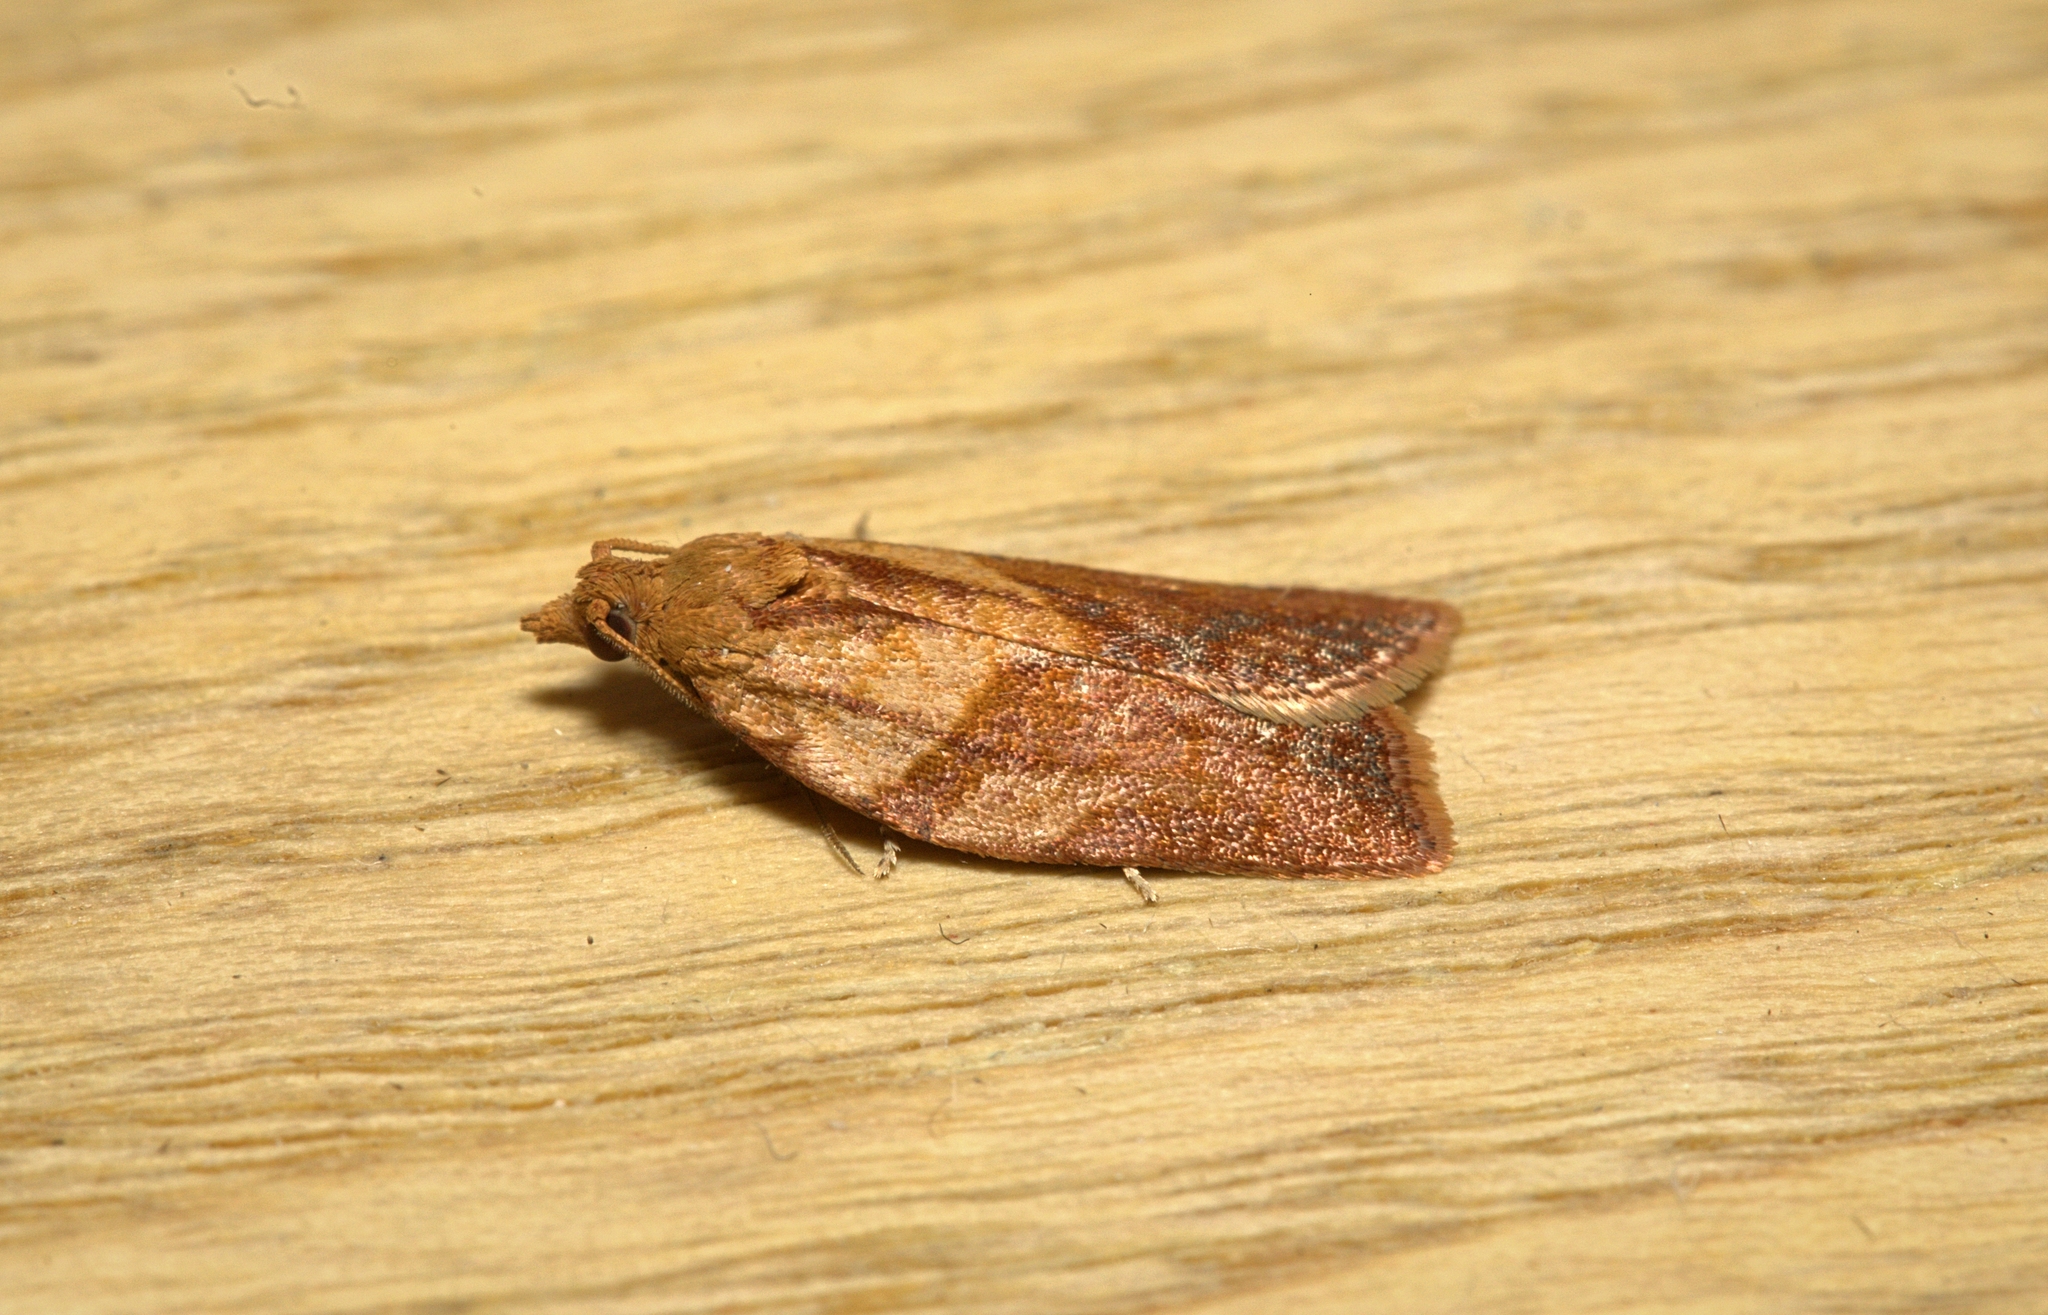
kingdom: Animalia
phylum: Arthropoda
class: Insecta
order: Lepidoptera
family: Tortricidae
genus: Epiphyas
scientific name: Epiphyas postvittana
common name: Light brown apple moth
